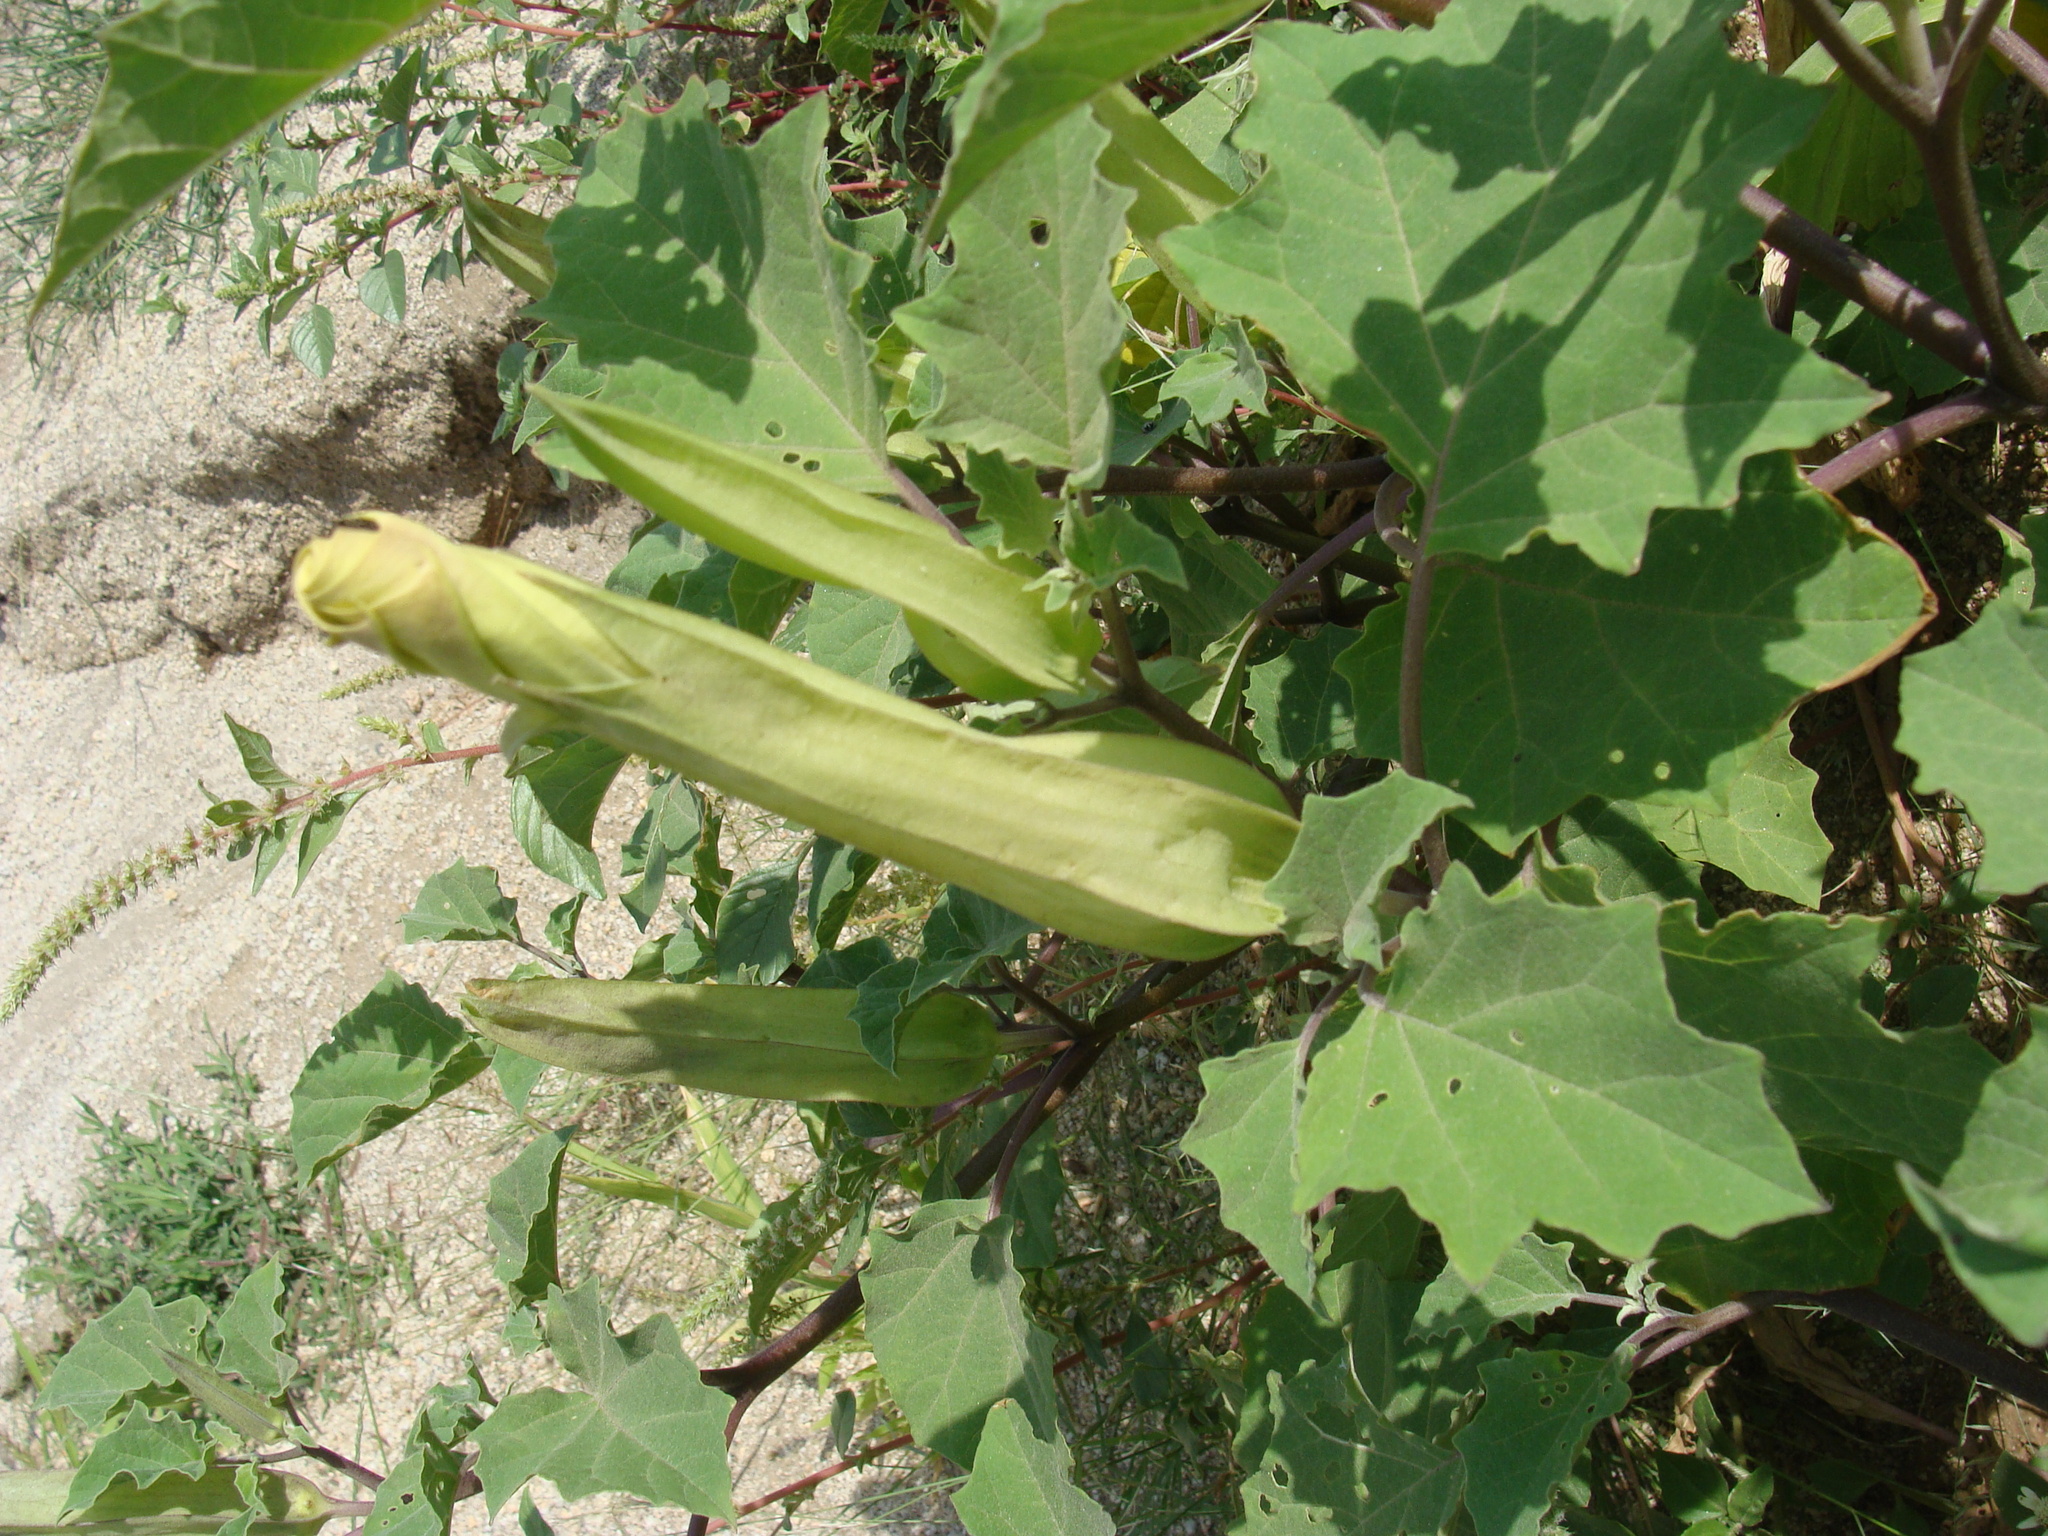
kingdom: Plantae
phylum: Tracheophyta
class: Magnoliopsida
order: Solanales
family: Solanaceae
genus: Datura
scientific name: Datura discolor
